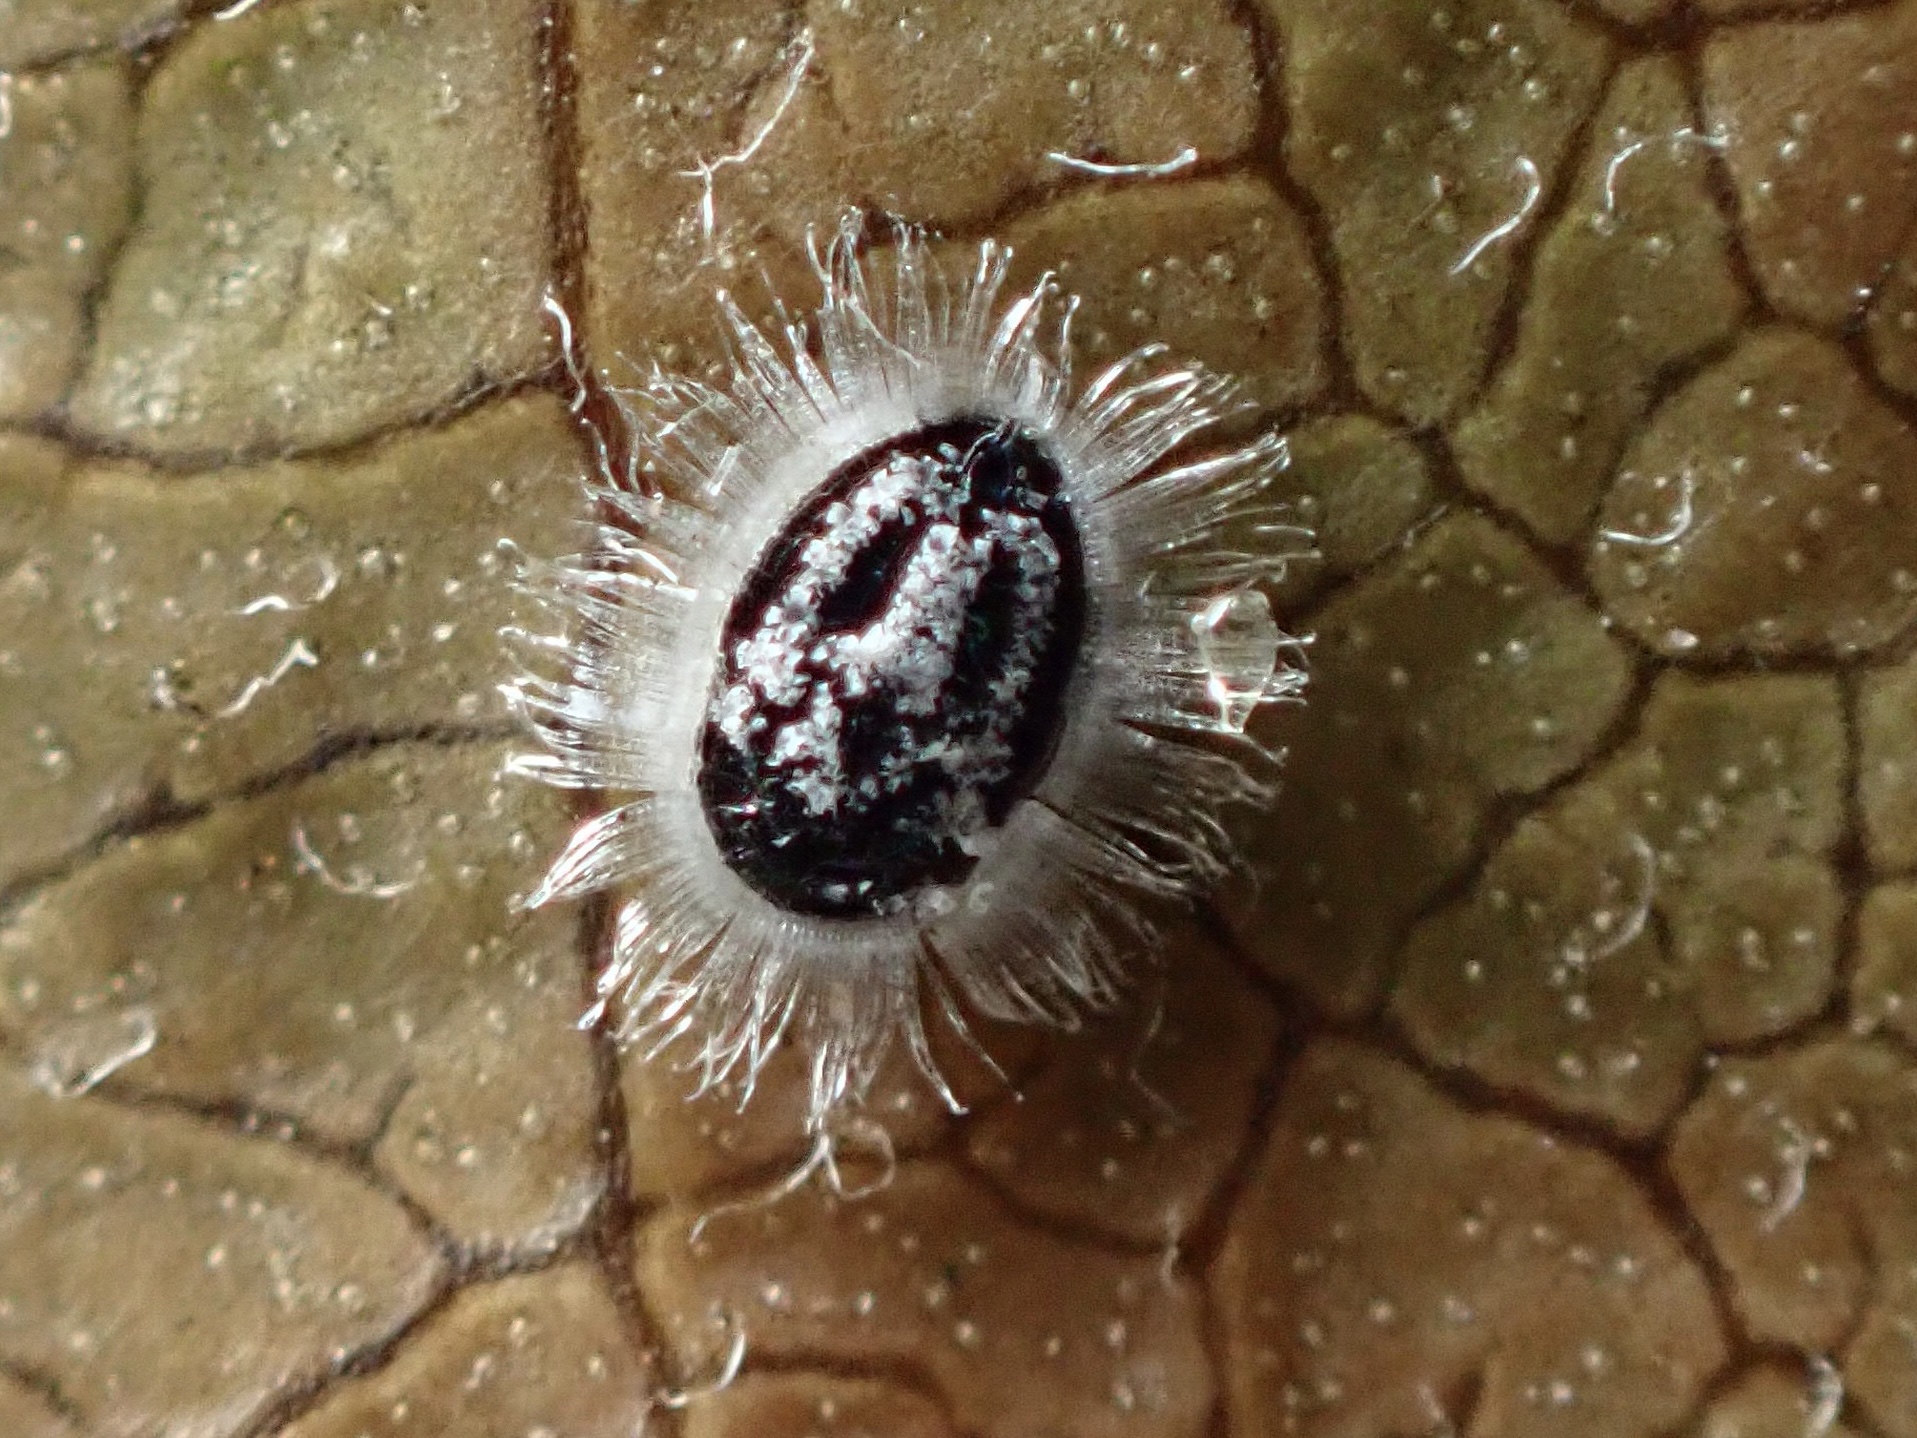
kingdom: Animalia
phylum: Arthropoda
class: Insecta
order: Hemiptera
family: Aleyrodidae
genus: Aleuroparadoxus
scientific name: Aleuroparadoxus arctostaphyli
